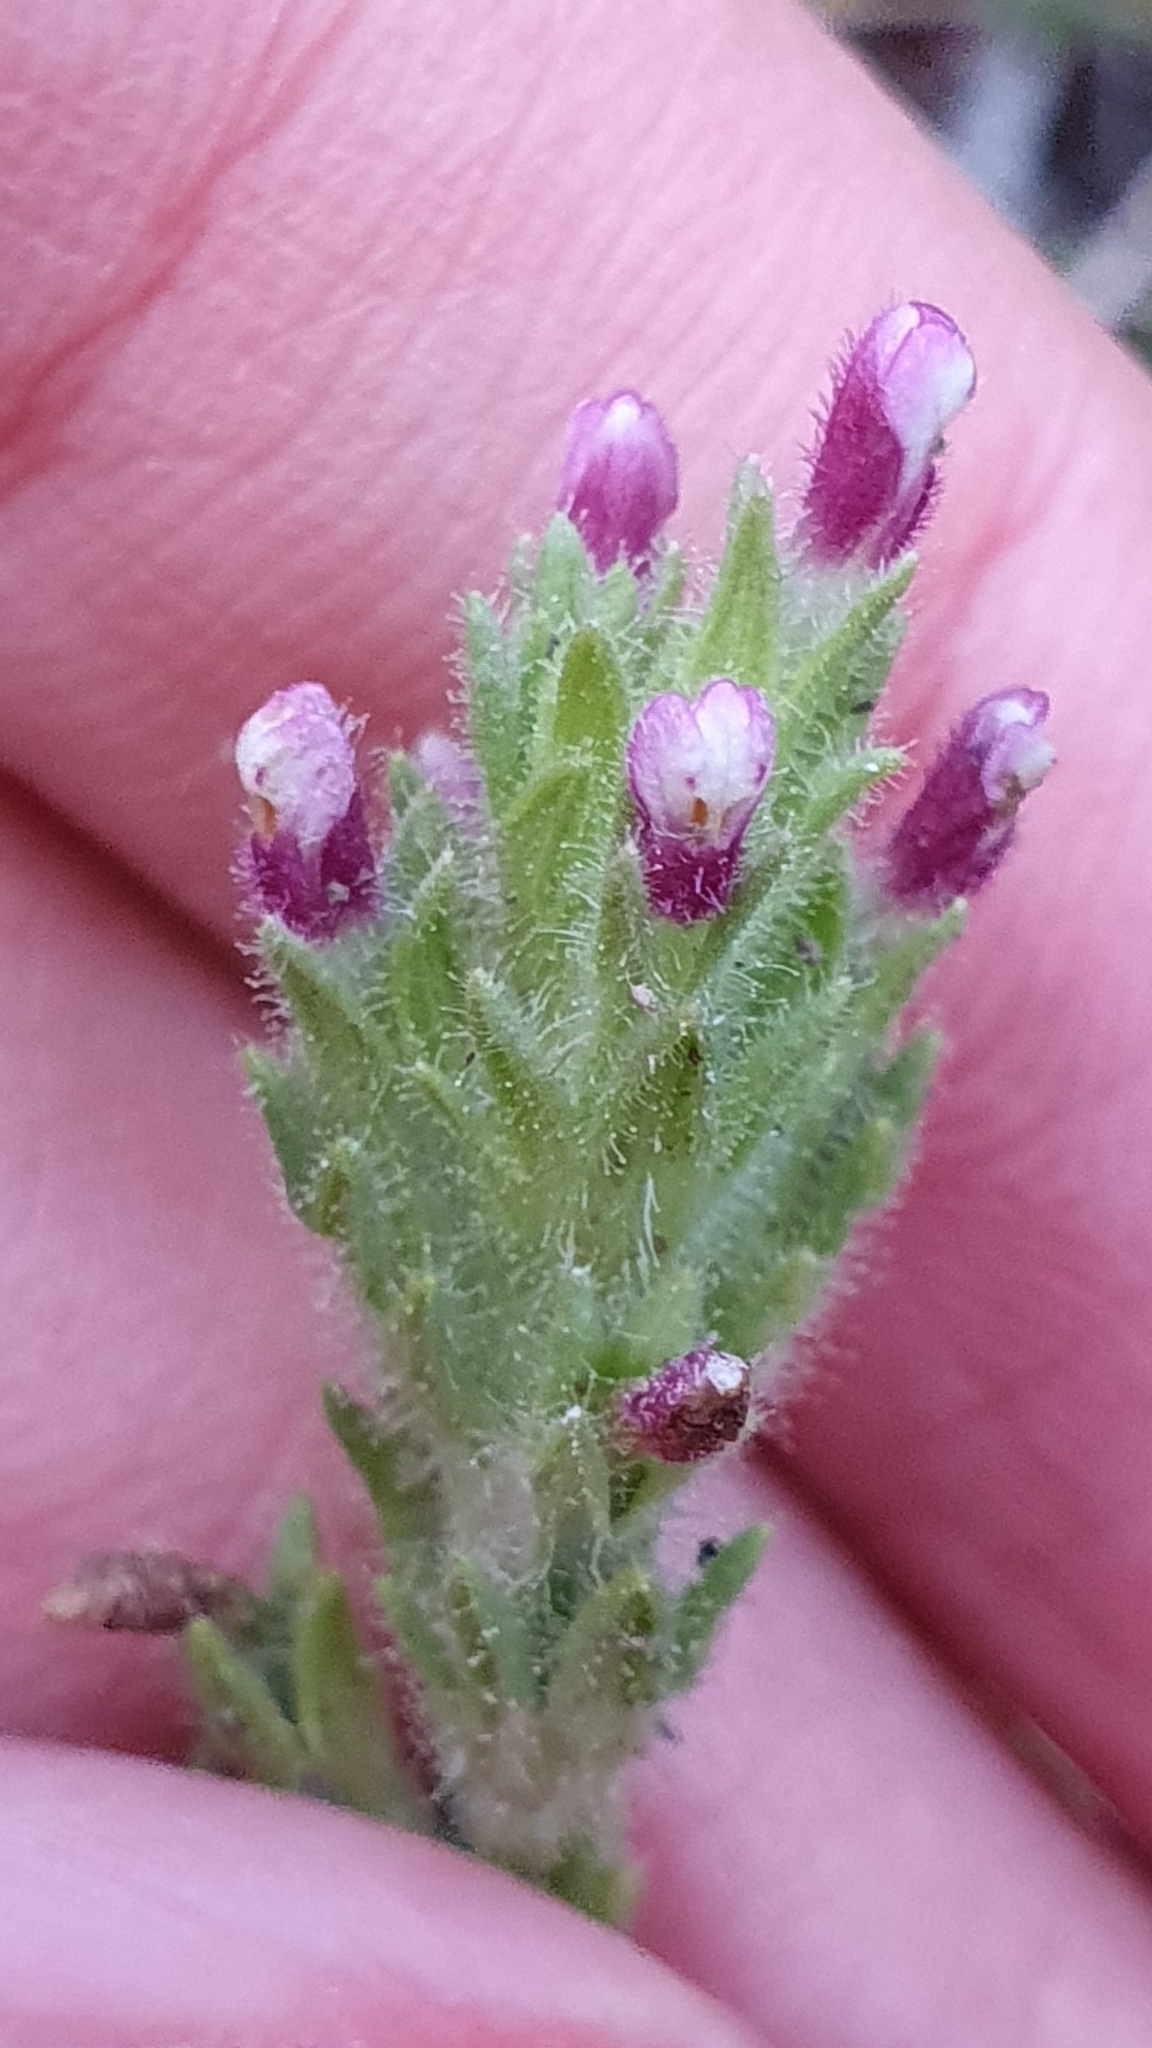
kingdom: Plantae
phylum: Tracheophyta
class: Magnoliopsida
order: Lamiales
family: Orobanchaceae
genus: Parentucellia
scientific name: Parentucellia latifolia
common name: Broadleaf glandweed
